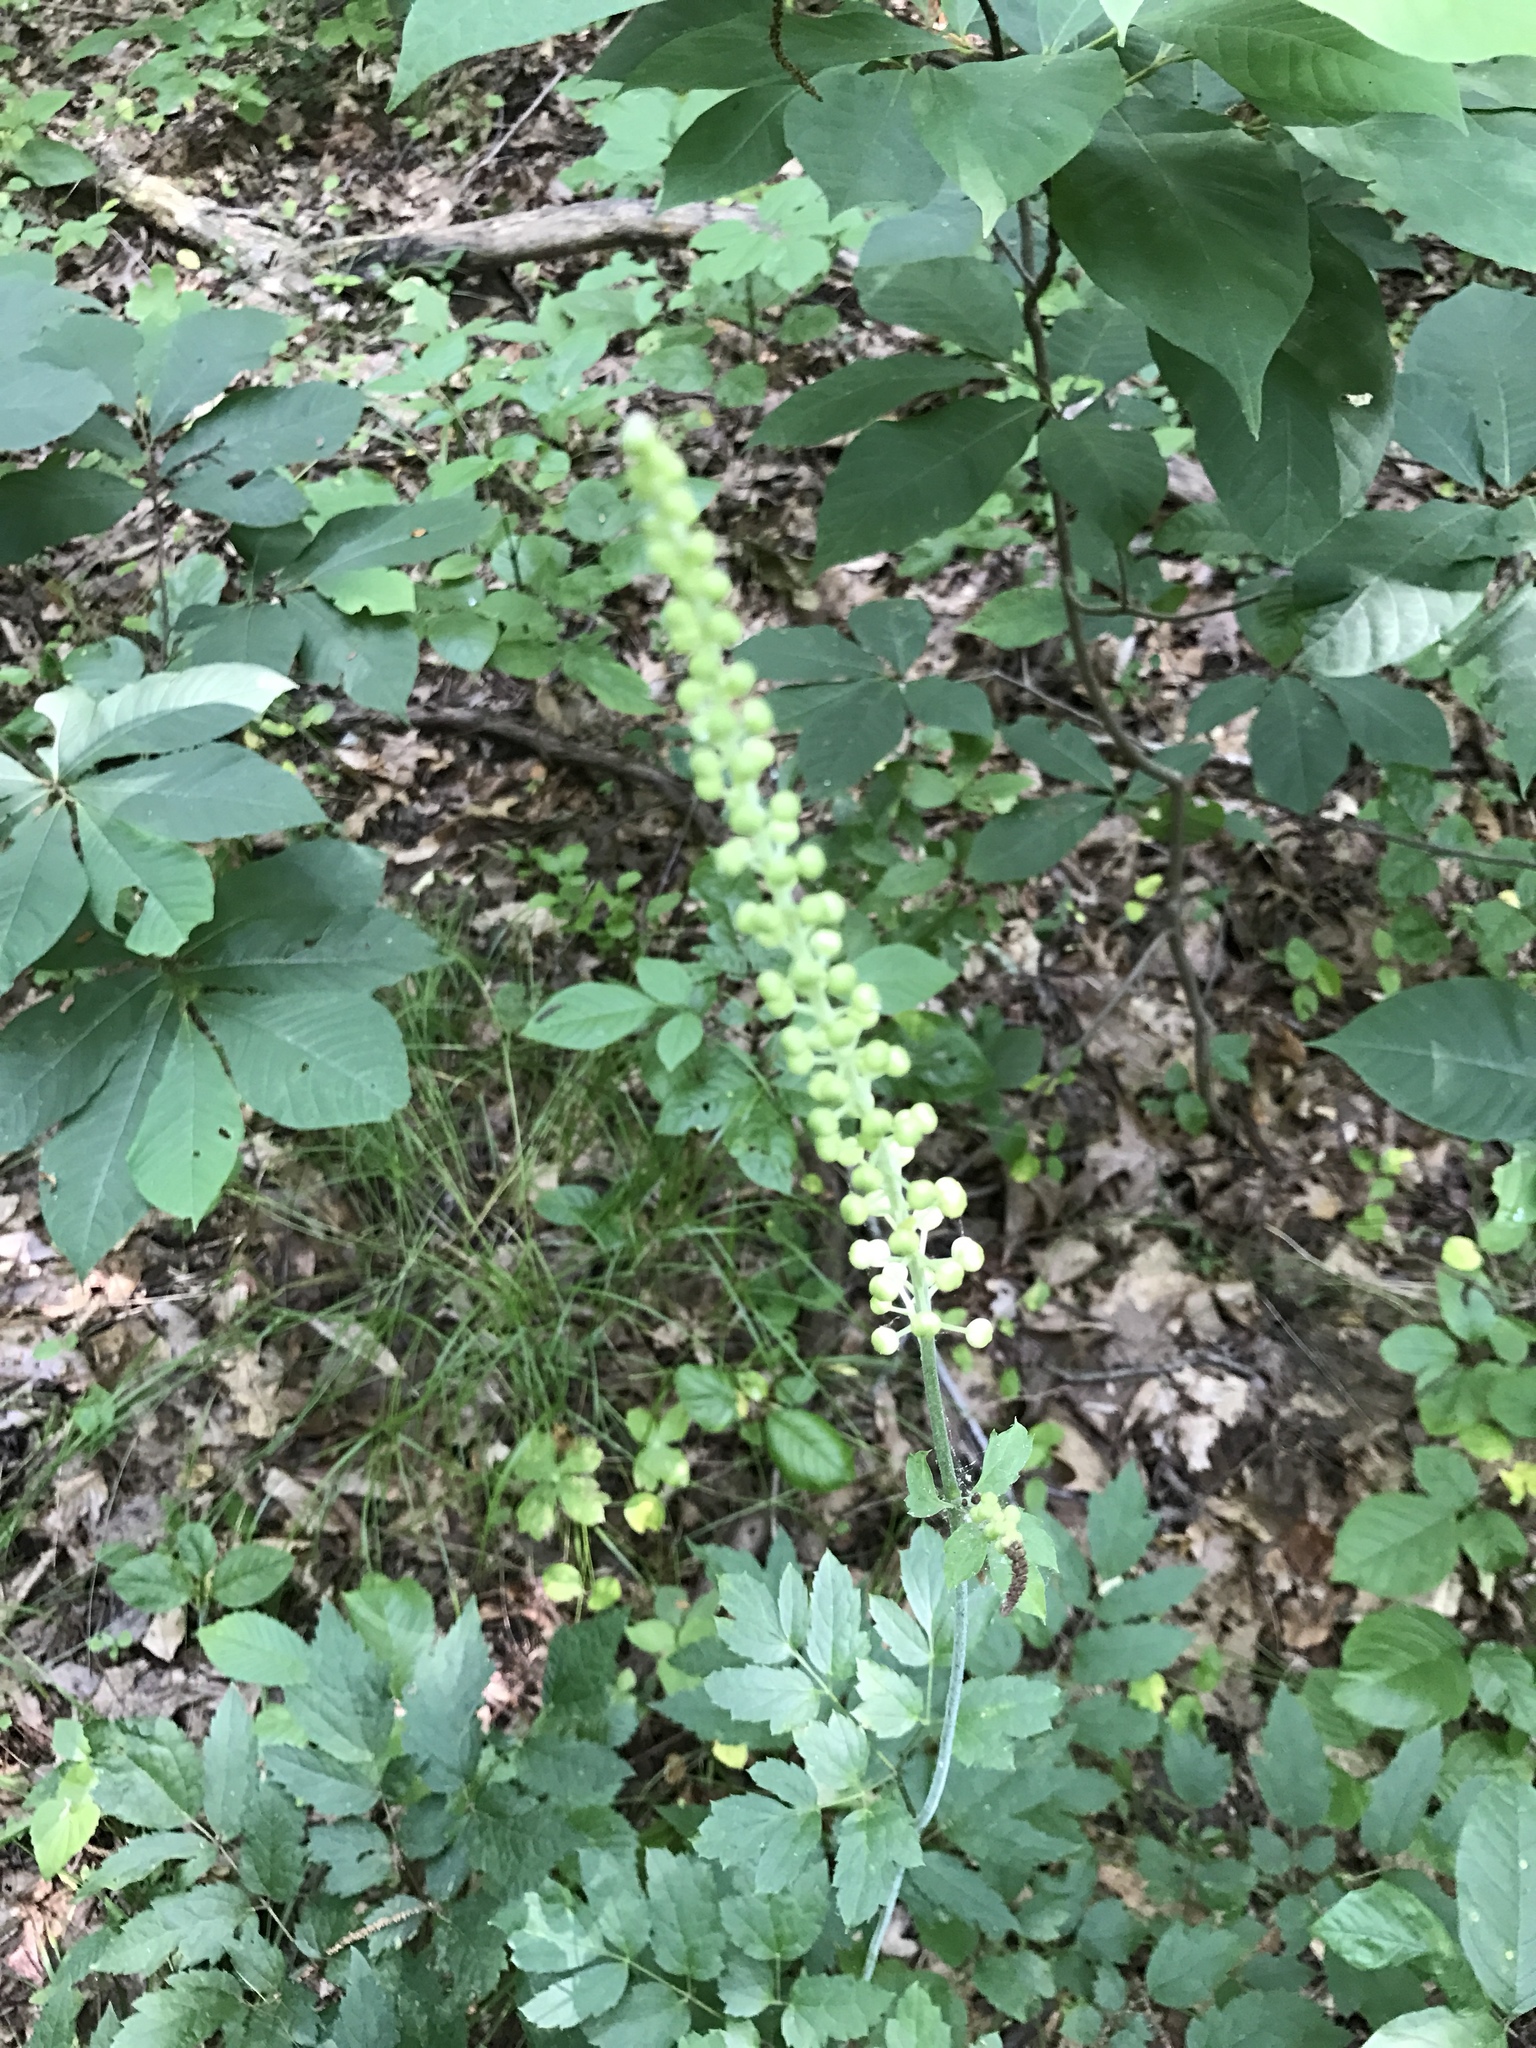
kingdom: Plantae
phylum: Tracheophyta
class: Magnoliopsida
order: Ranunculales
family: Ranunculaceae
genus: Actaea
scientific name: Actaea racemosa
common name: Black cohosh
